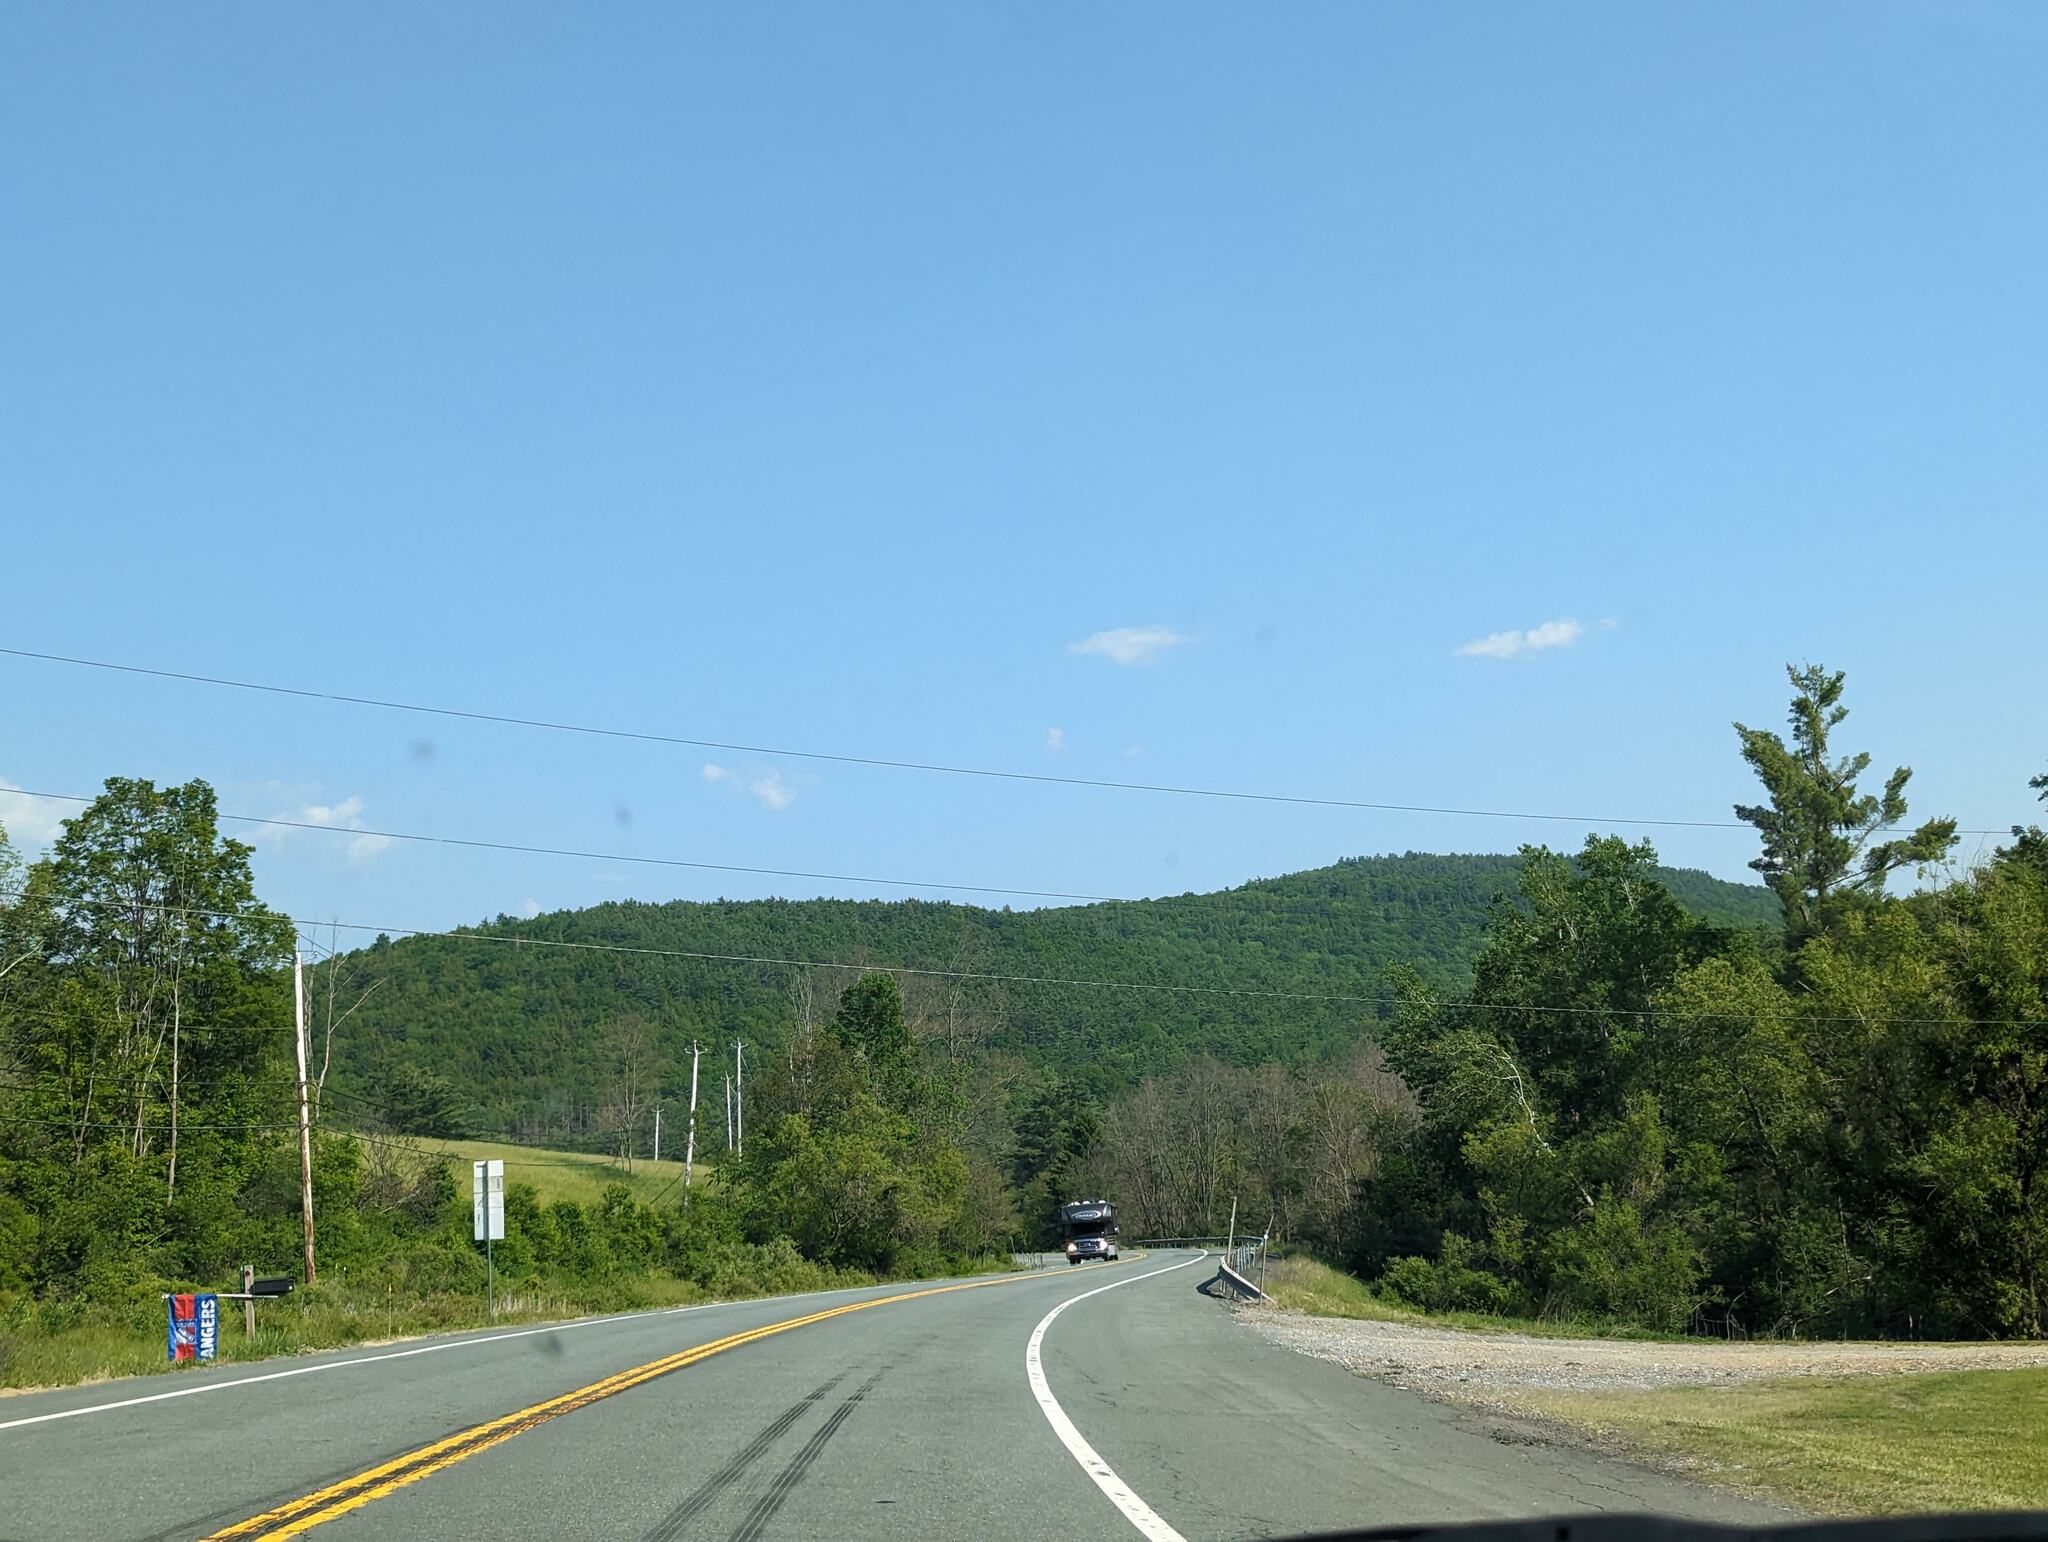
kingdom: Plantae
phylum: Tracheophyta
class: Pinopsida
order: Pinales
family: Pinaceae
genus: Pinus
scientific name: Pinus strobus
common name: Weymouth pine
